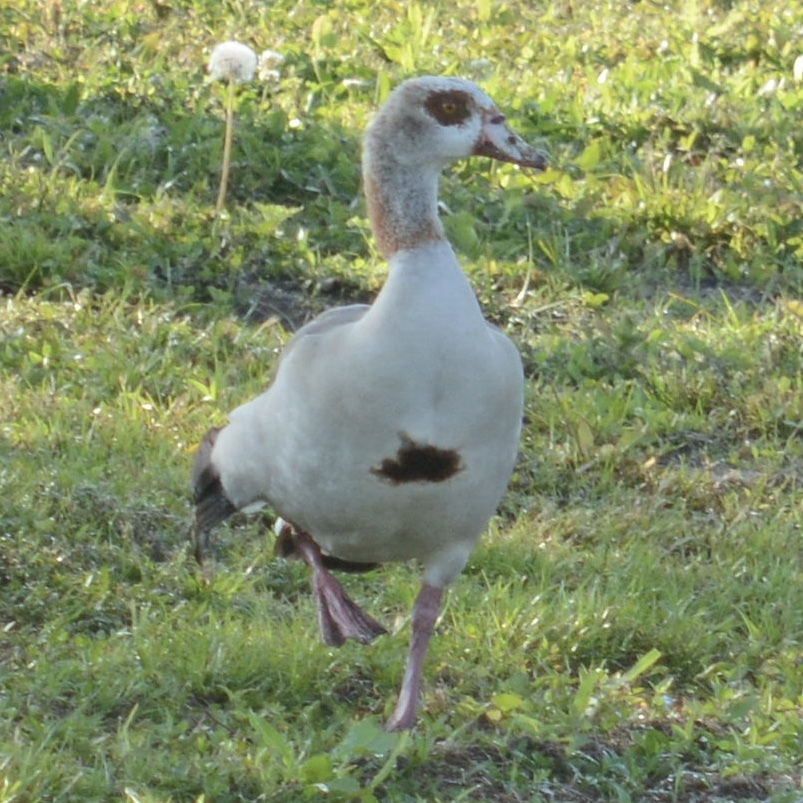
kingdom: Animalia
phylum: Chordata
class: Aves
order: Anseriformes
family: Anatidae
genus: Alopochen
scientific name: Alopochen aegyptiaca
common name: Egyptian goose
